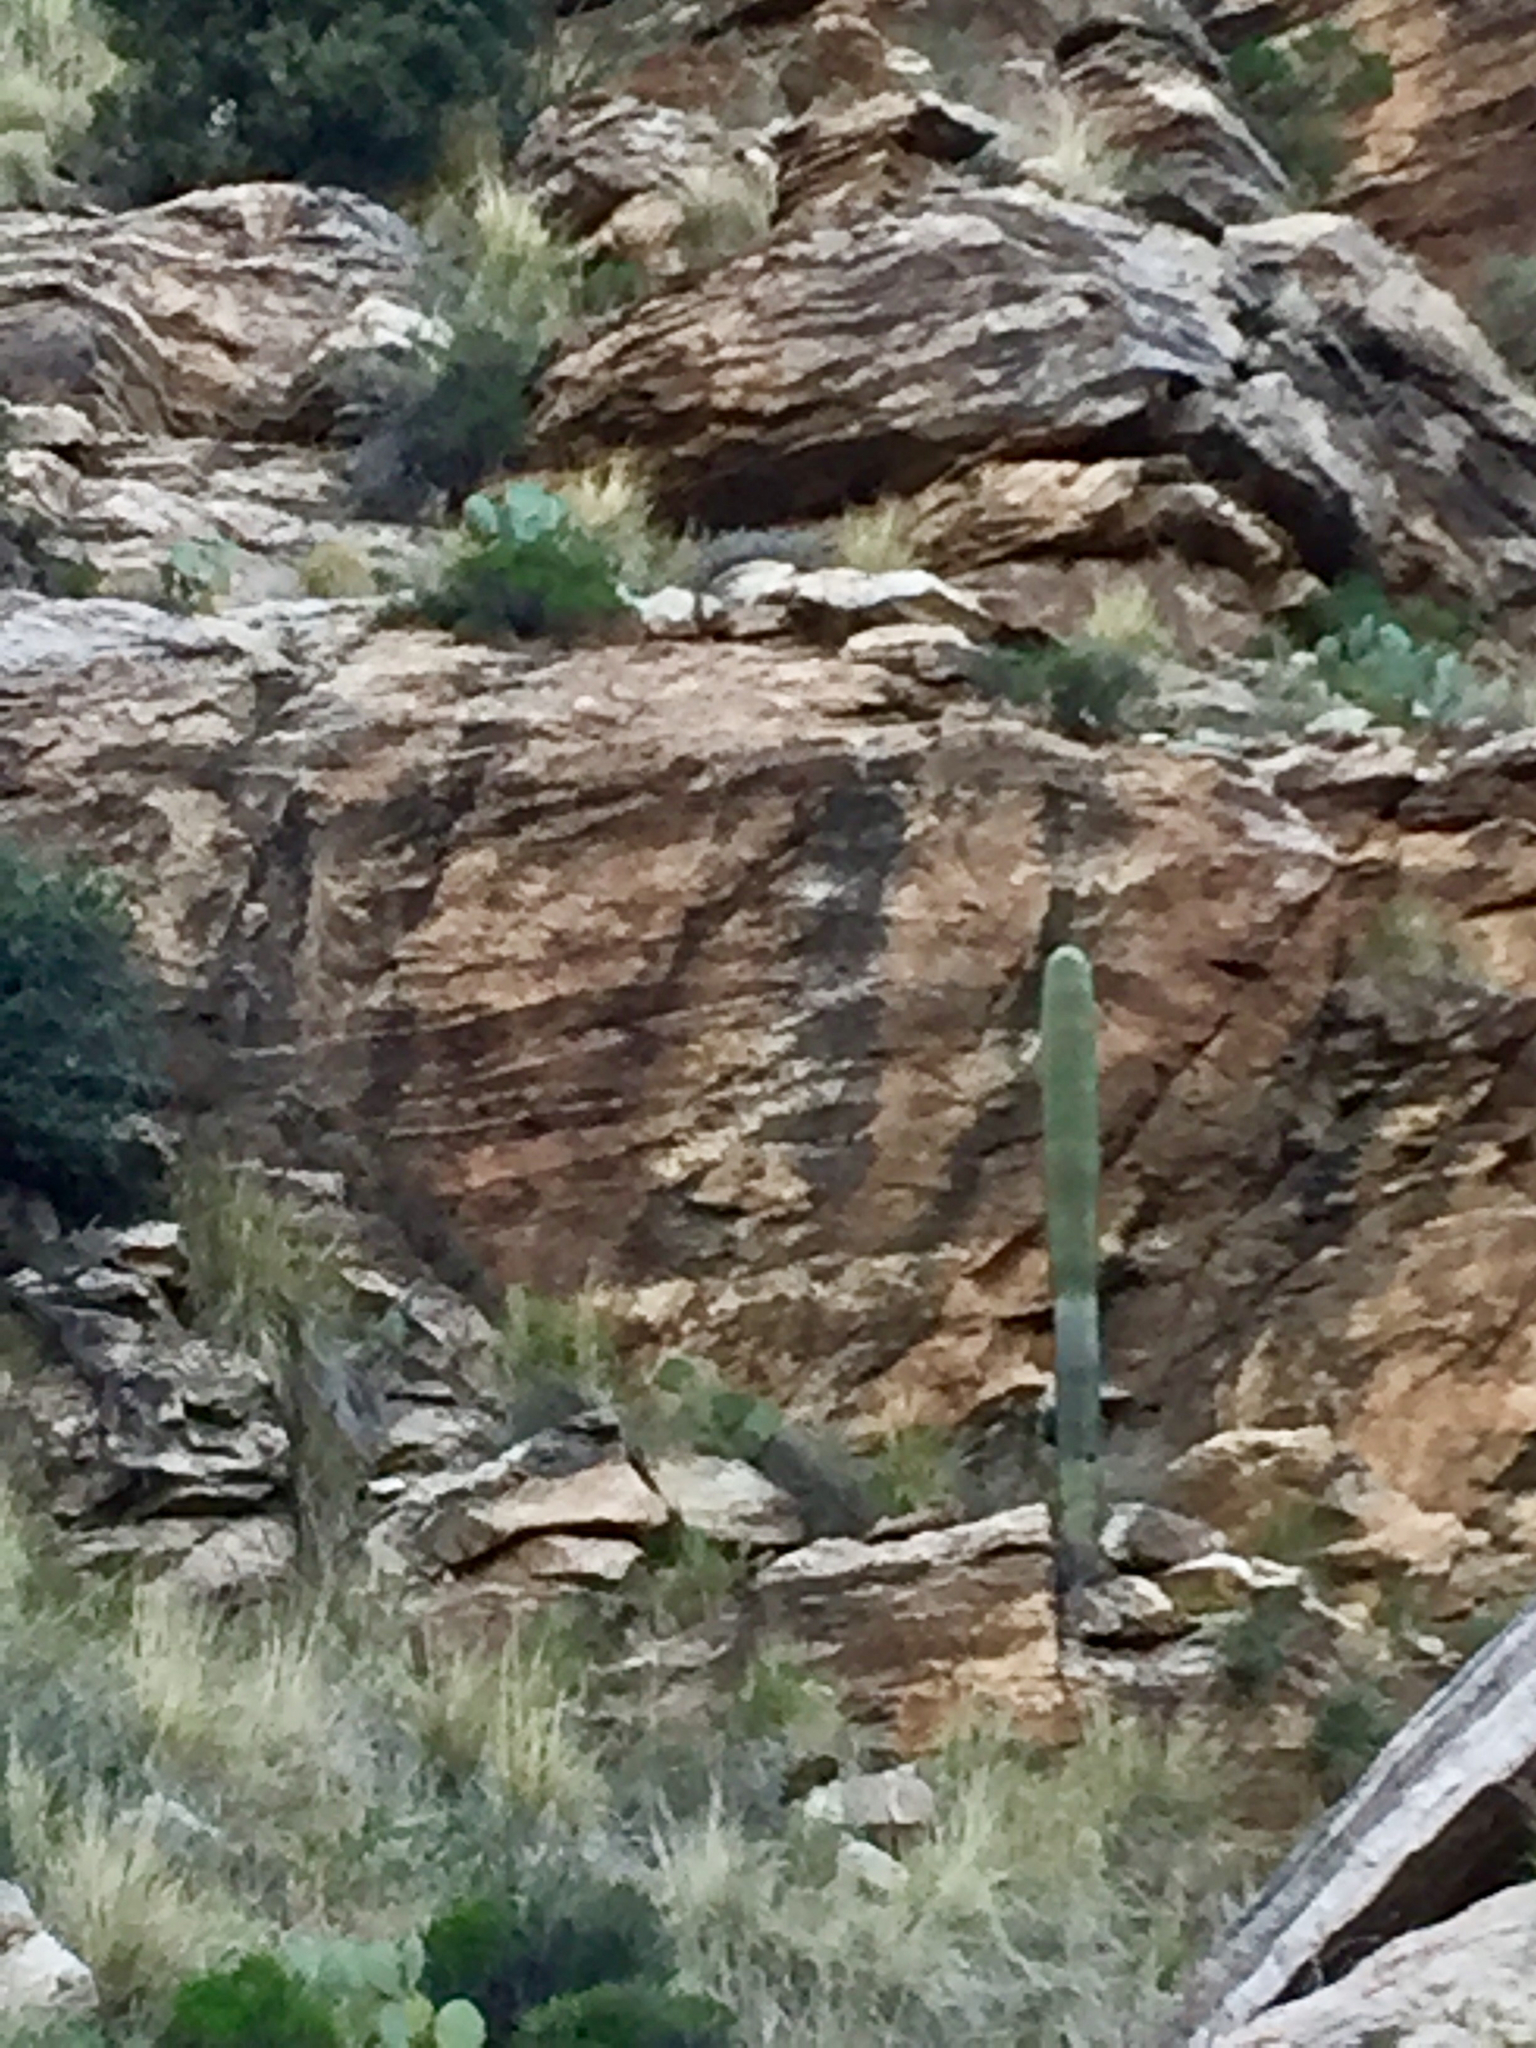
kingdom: Plantae
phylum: Tracheophyta
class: Magnoliopsida
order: Caryophyllales
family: Cactaceae
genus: Carnegiea
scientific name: Carnegiea gigantea
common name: Saguaro
